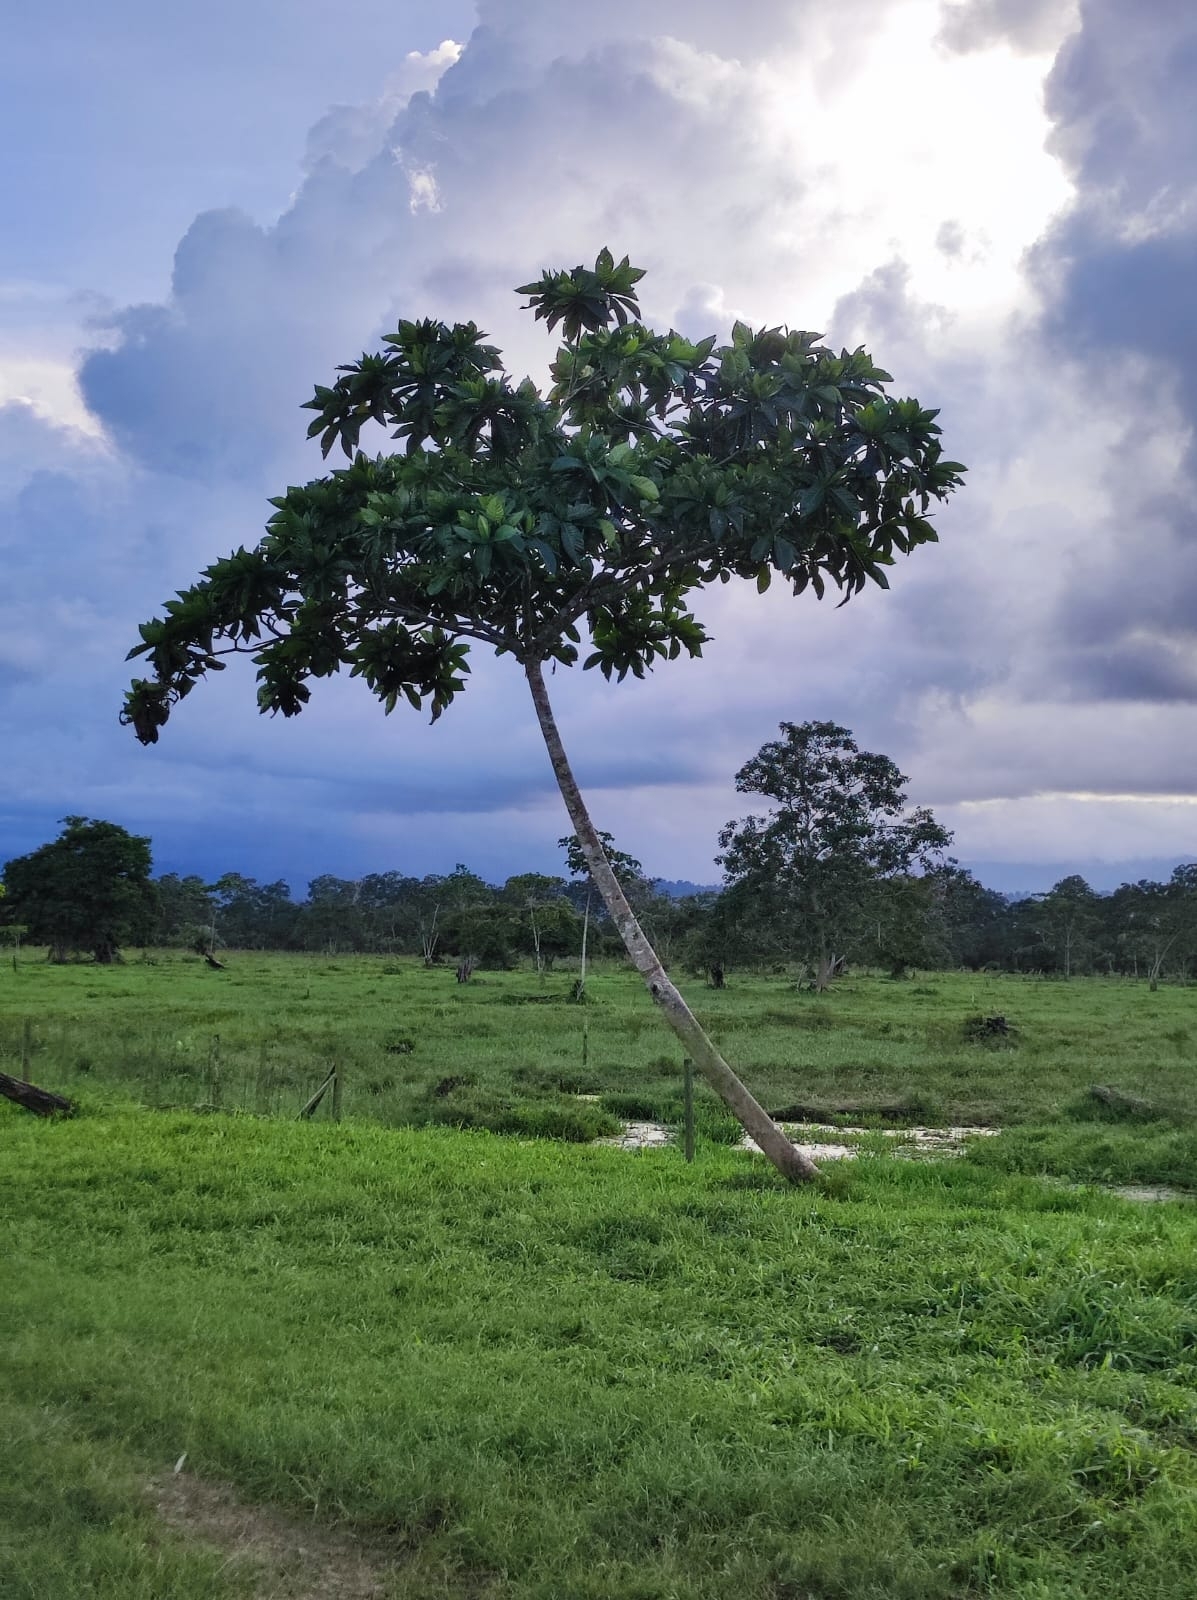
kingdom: Plantae
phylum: Tracheophyta
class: Magnoliopsida
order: Myrtales
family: Combretaceae
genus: Terminalia
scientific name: Terminalia catappa
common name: Tropical almond
